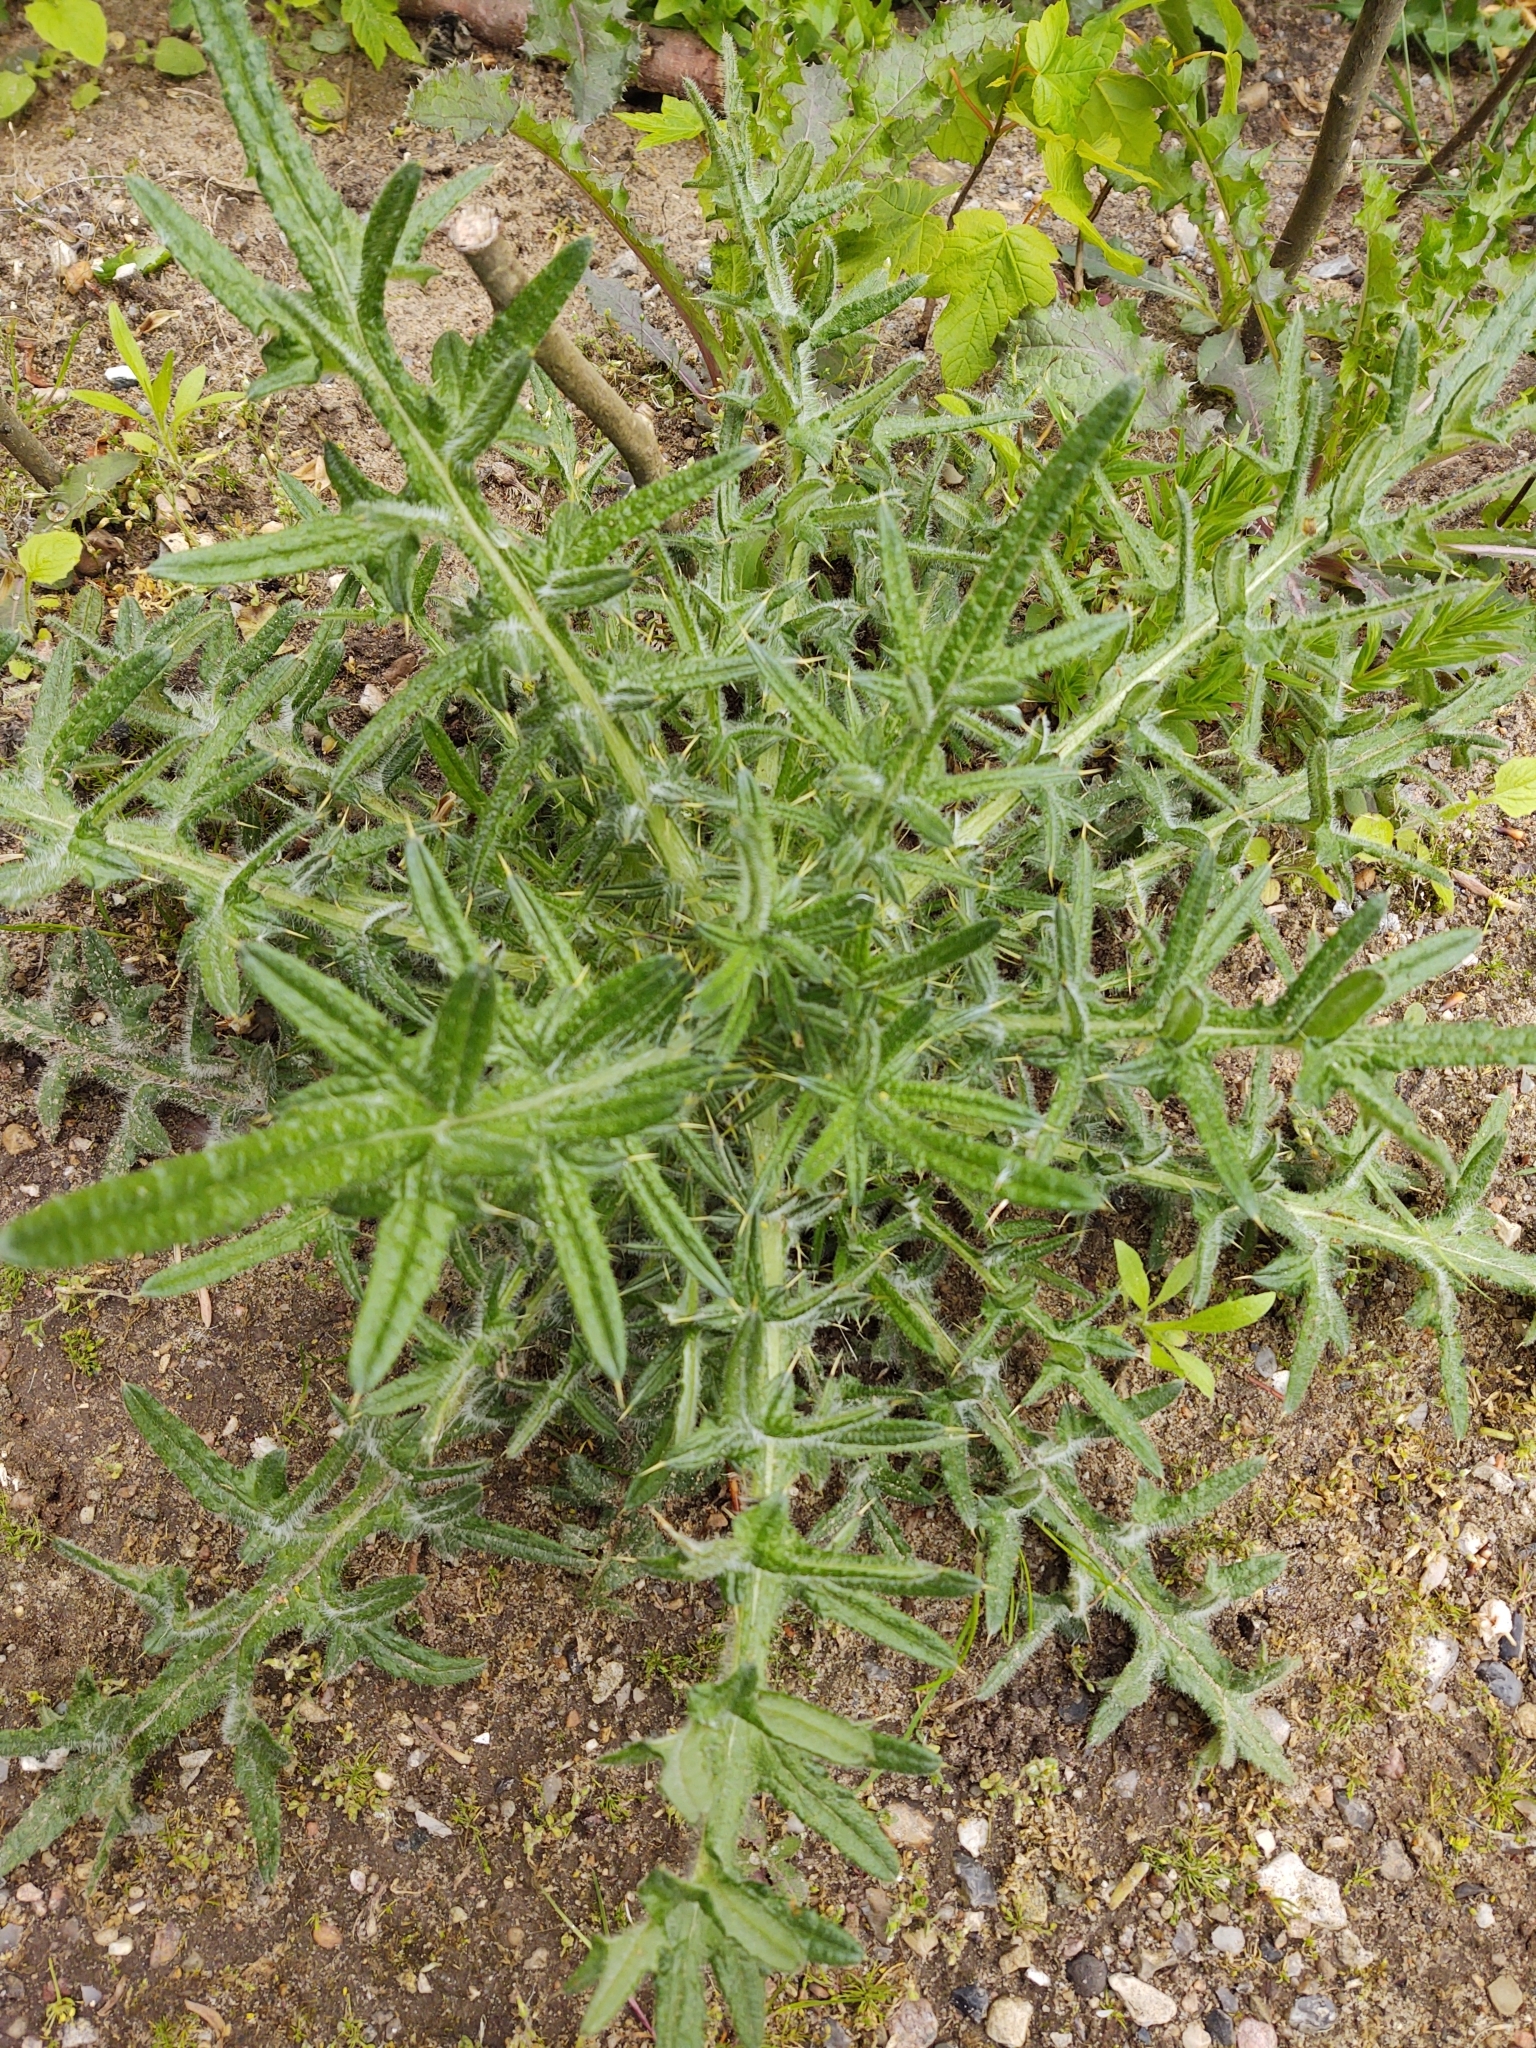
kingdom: Plantae
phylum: Tracheophyta
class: Magnoliopsida
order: Asterales
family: Asteraceae
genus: Cirsium
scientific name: Cirsium vulgare
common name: Bull thistle
